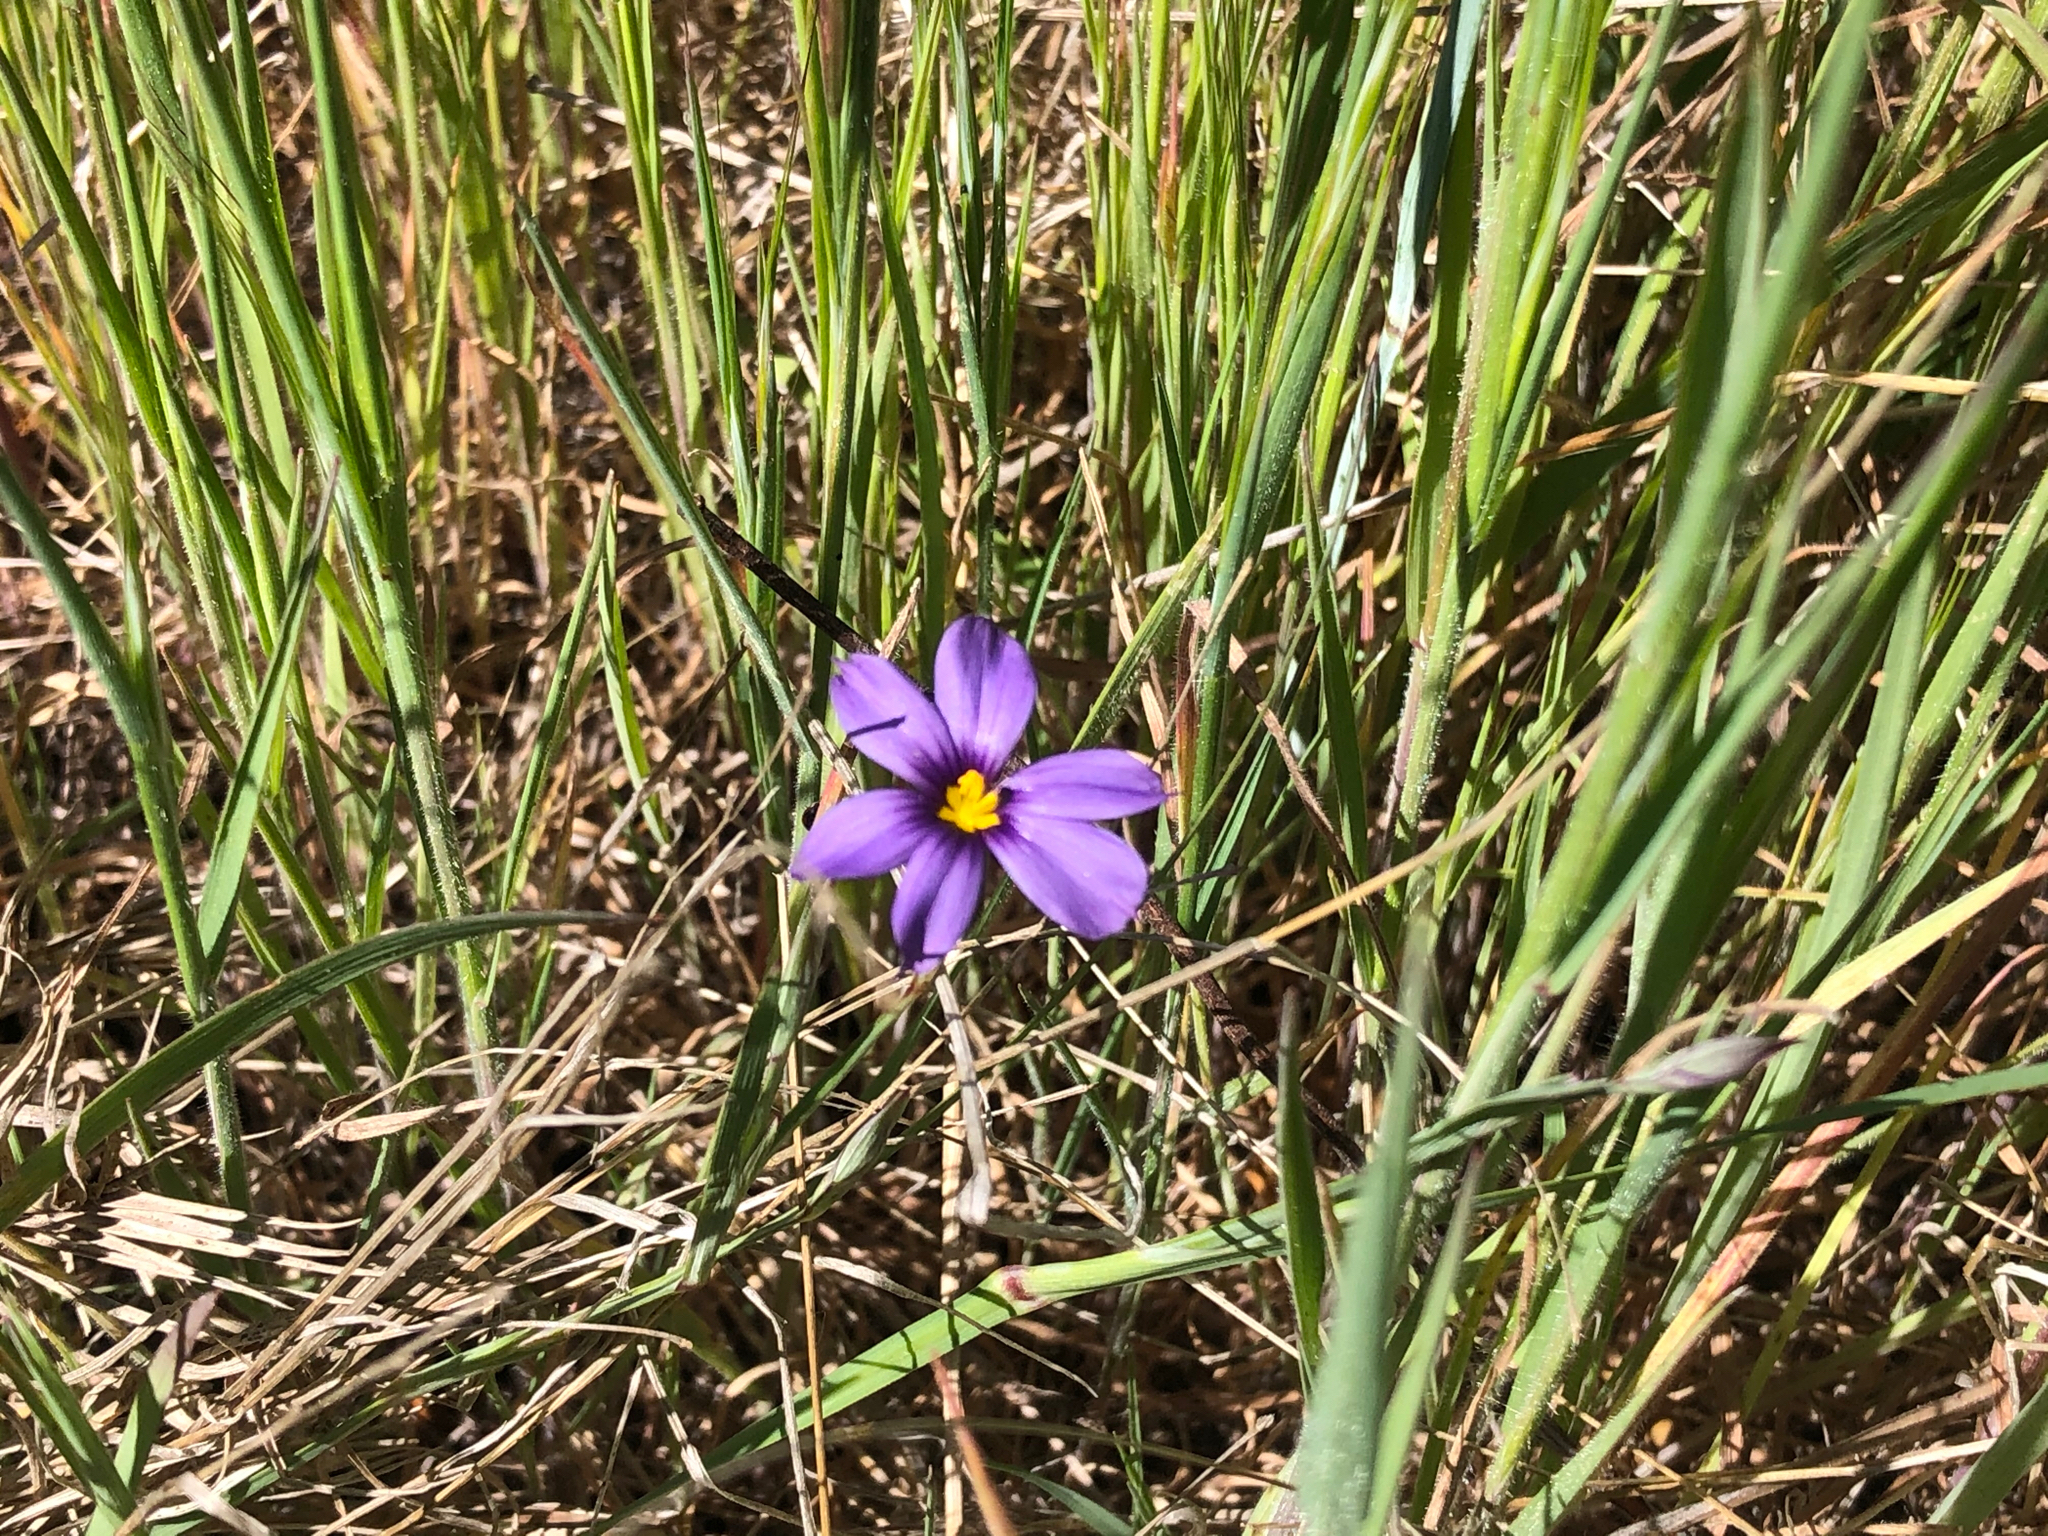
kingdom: Plantae
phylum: Tracheophyta
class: Liliopsida
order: Asparagales
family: Iridaceae
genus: Sisyrinchium
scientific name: Sisyrinchium bellum
